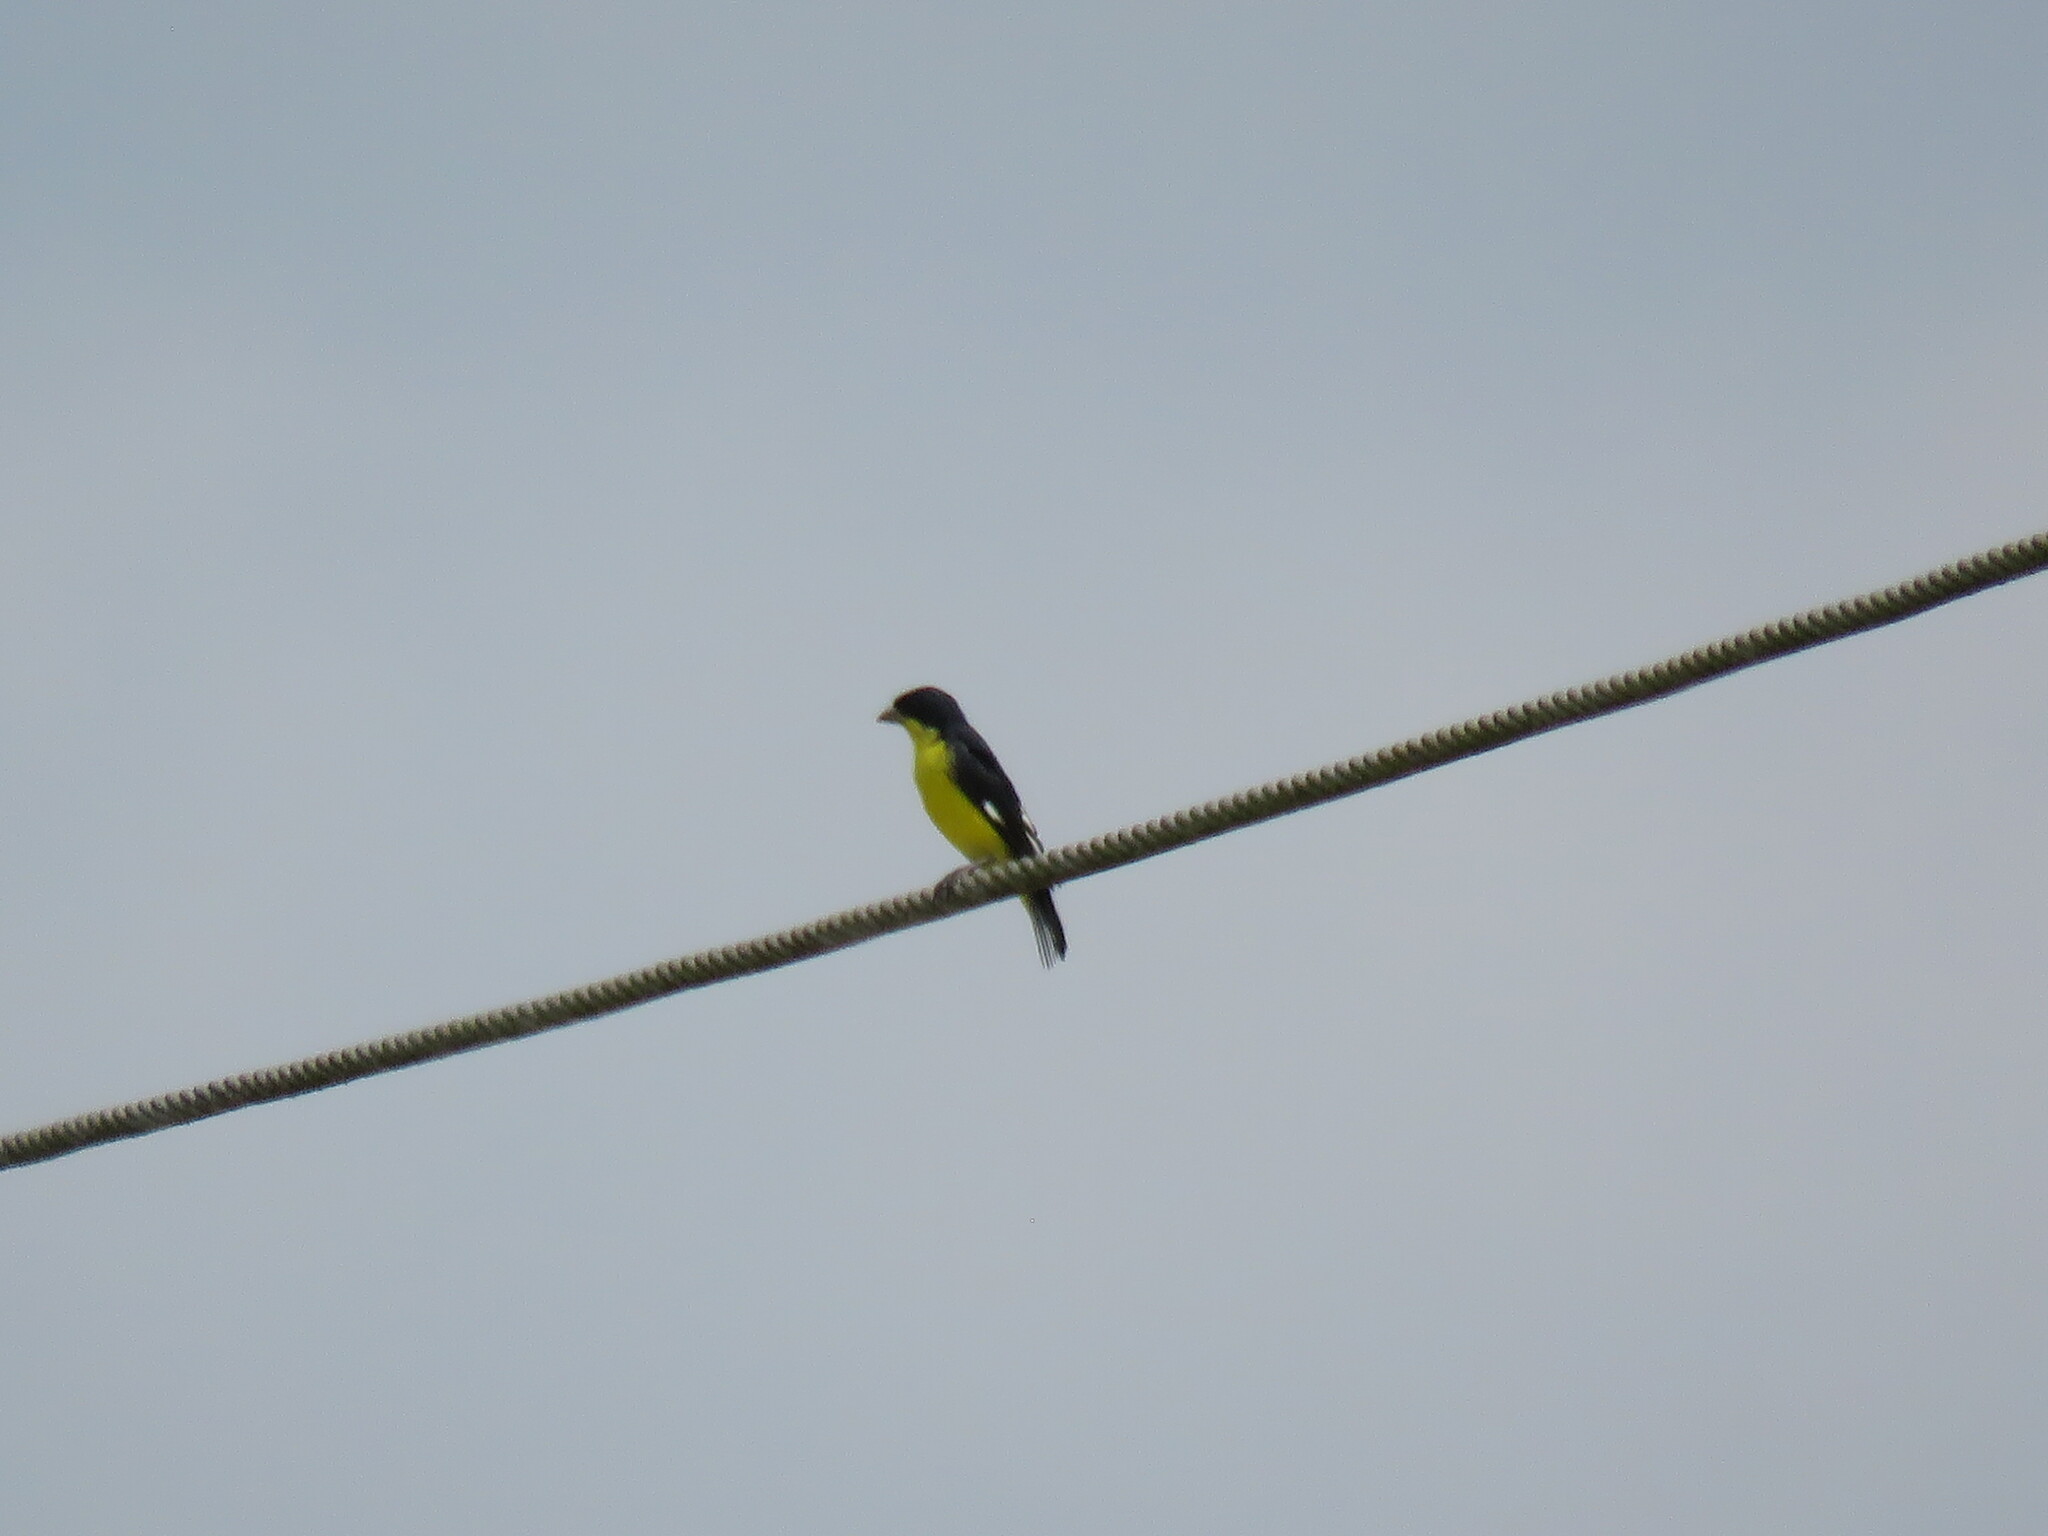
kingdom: Animalia
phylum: Chordata
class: Aves
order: Passeriformes
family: Fringillidae
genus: Spinus
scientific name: Spinus psaltria
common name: Lesser goldfinch
